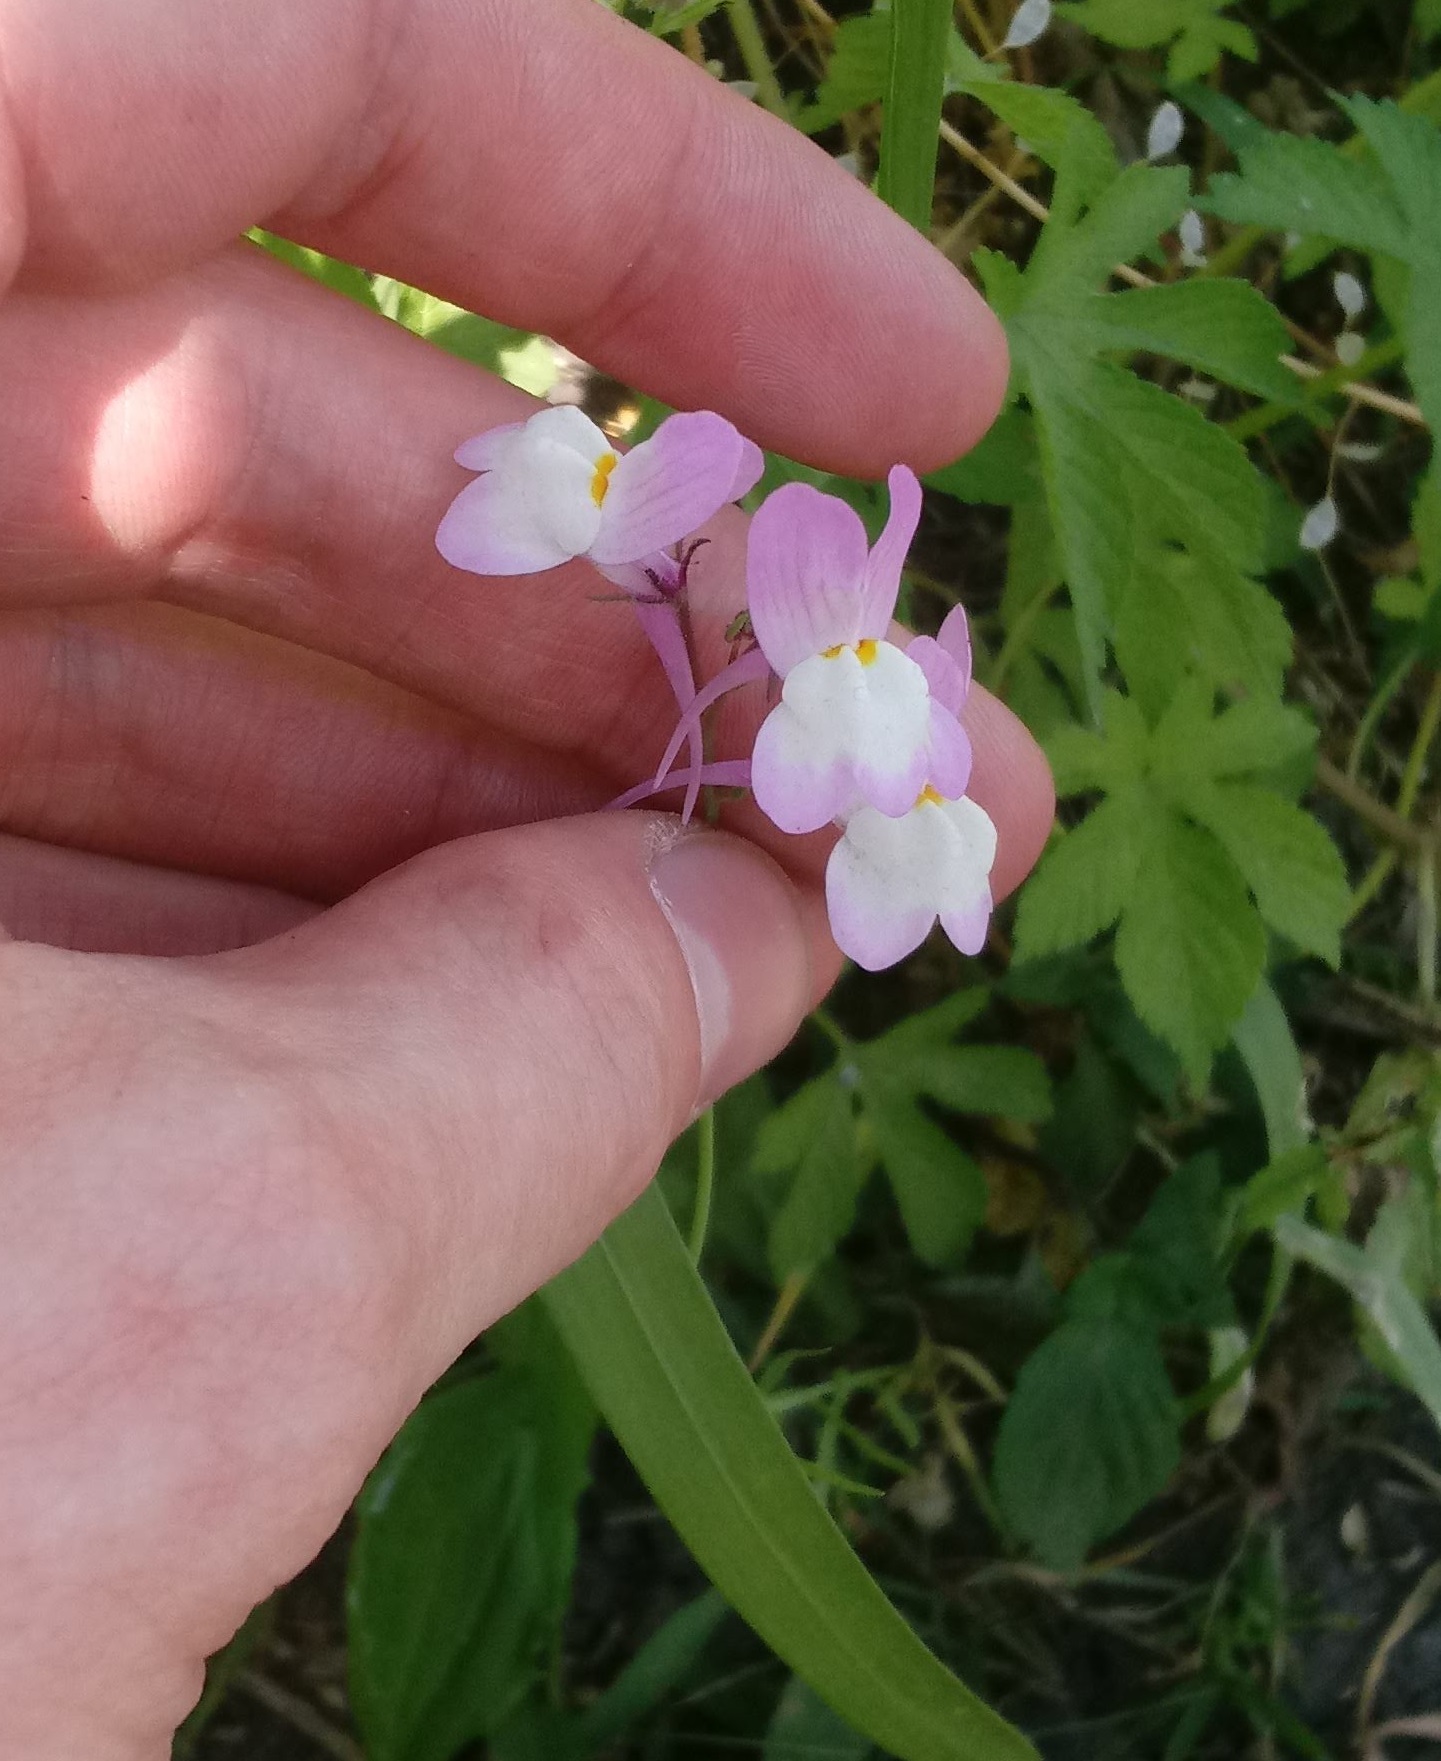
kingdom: Plantae
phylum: Tracheophyta
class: Magnoliopsida
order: Lamiales
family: Plantaginaceae
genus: Linaria
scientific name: Linaria maroccana
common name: Moroccan toadflax
